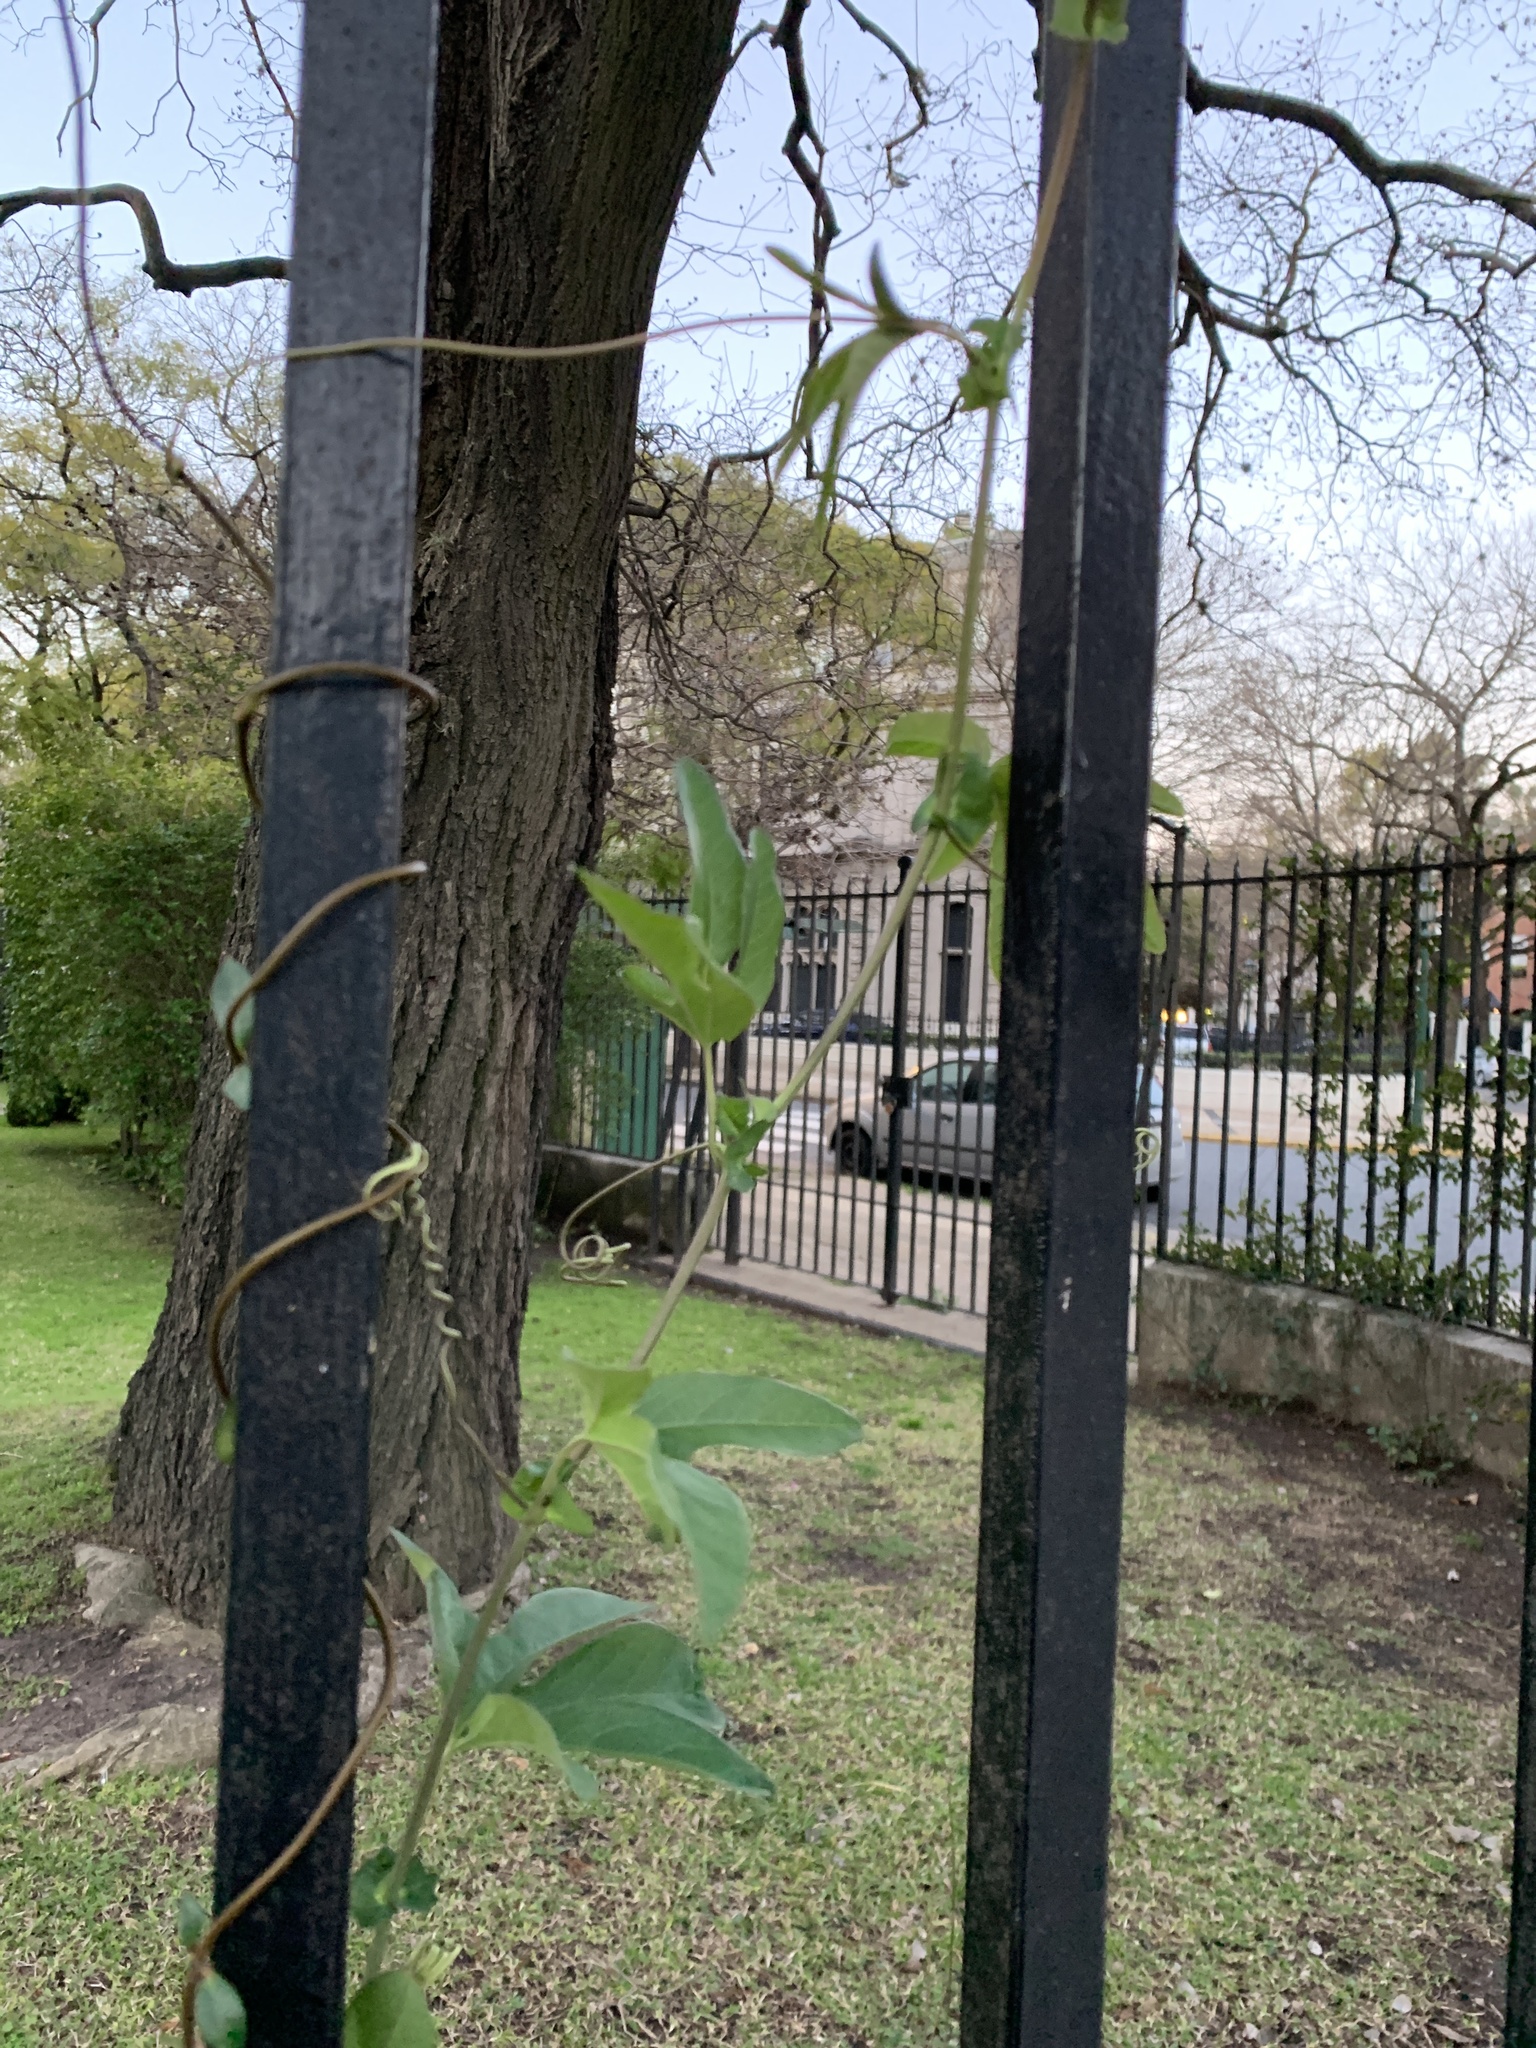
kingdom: Plantae
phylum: Tracheophyta
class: Magnoliopsida
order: Malpighiales
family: Passifloraceae
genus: Passiflora
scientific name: Passiflora caerulea
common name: Blue passionflower
